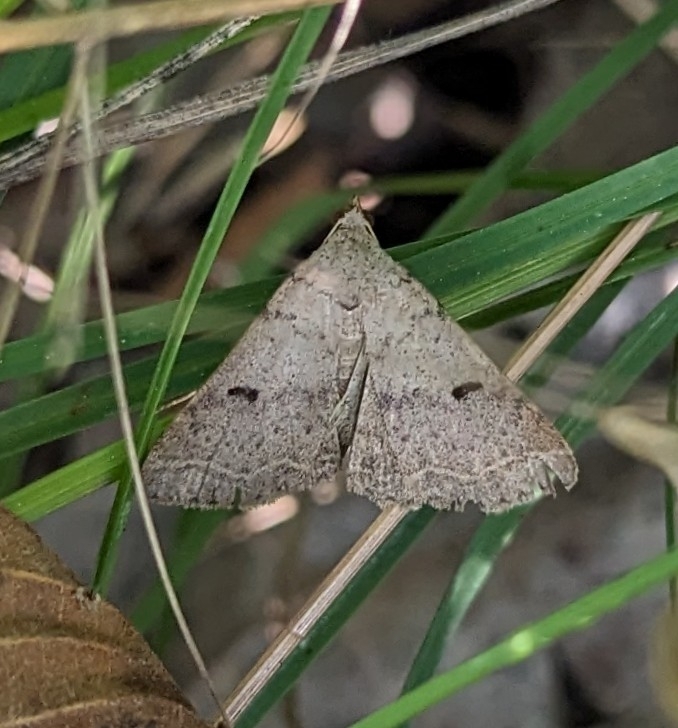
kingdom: Animalia
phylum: Arthropoda
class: Insecta
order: Lepidoptera
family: Erebidae
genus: Bleptina
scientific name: Bleptina caradrinalis
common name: Bent-winged owlet
